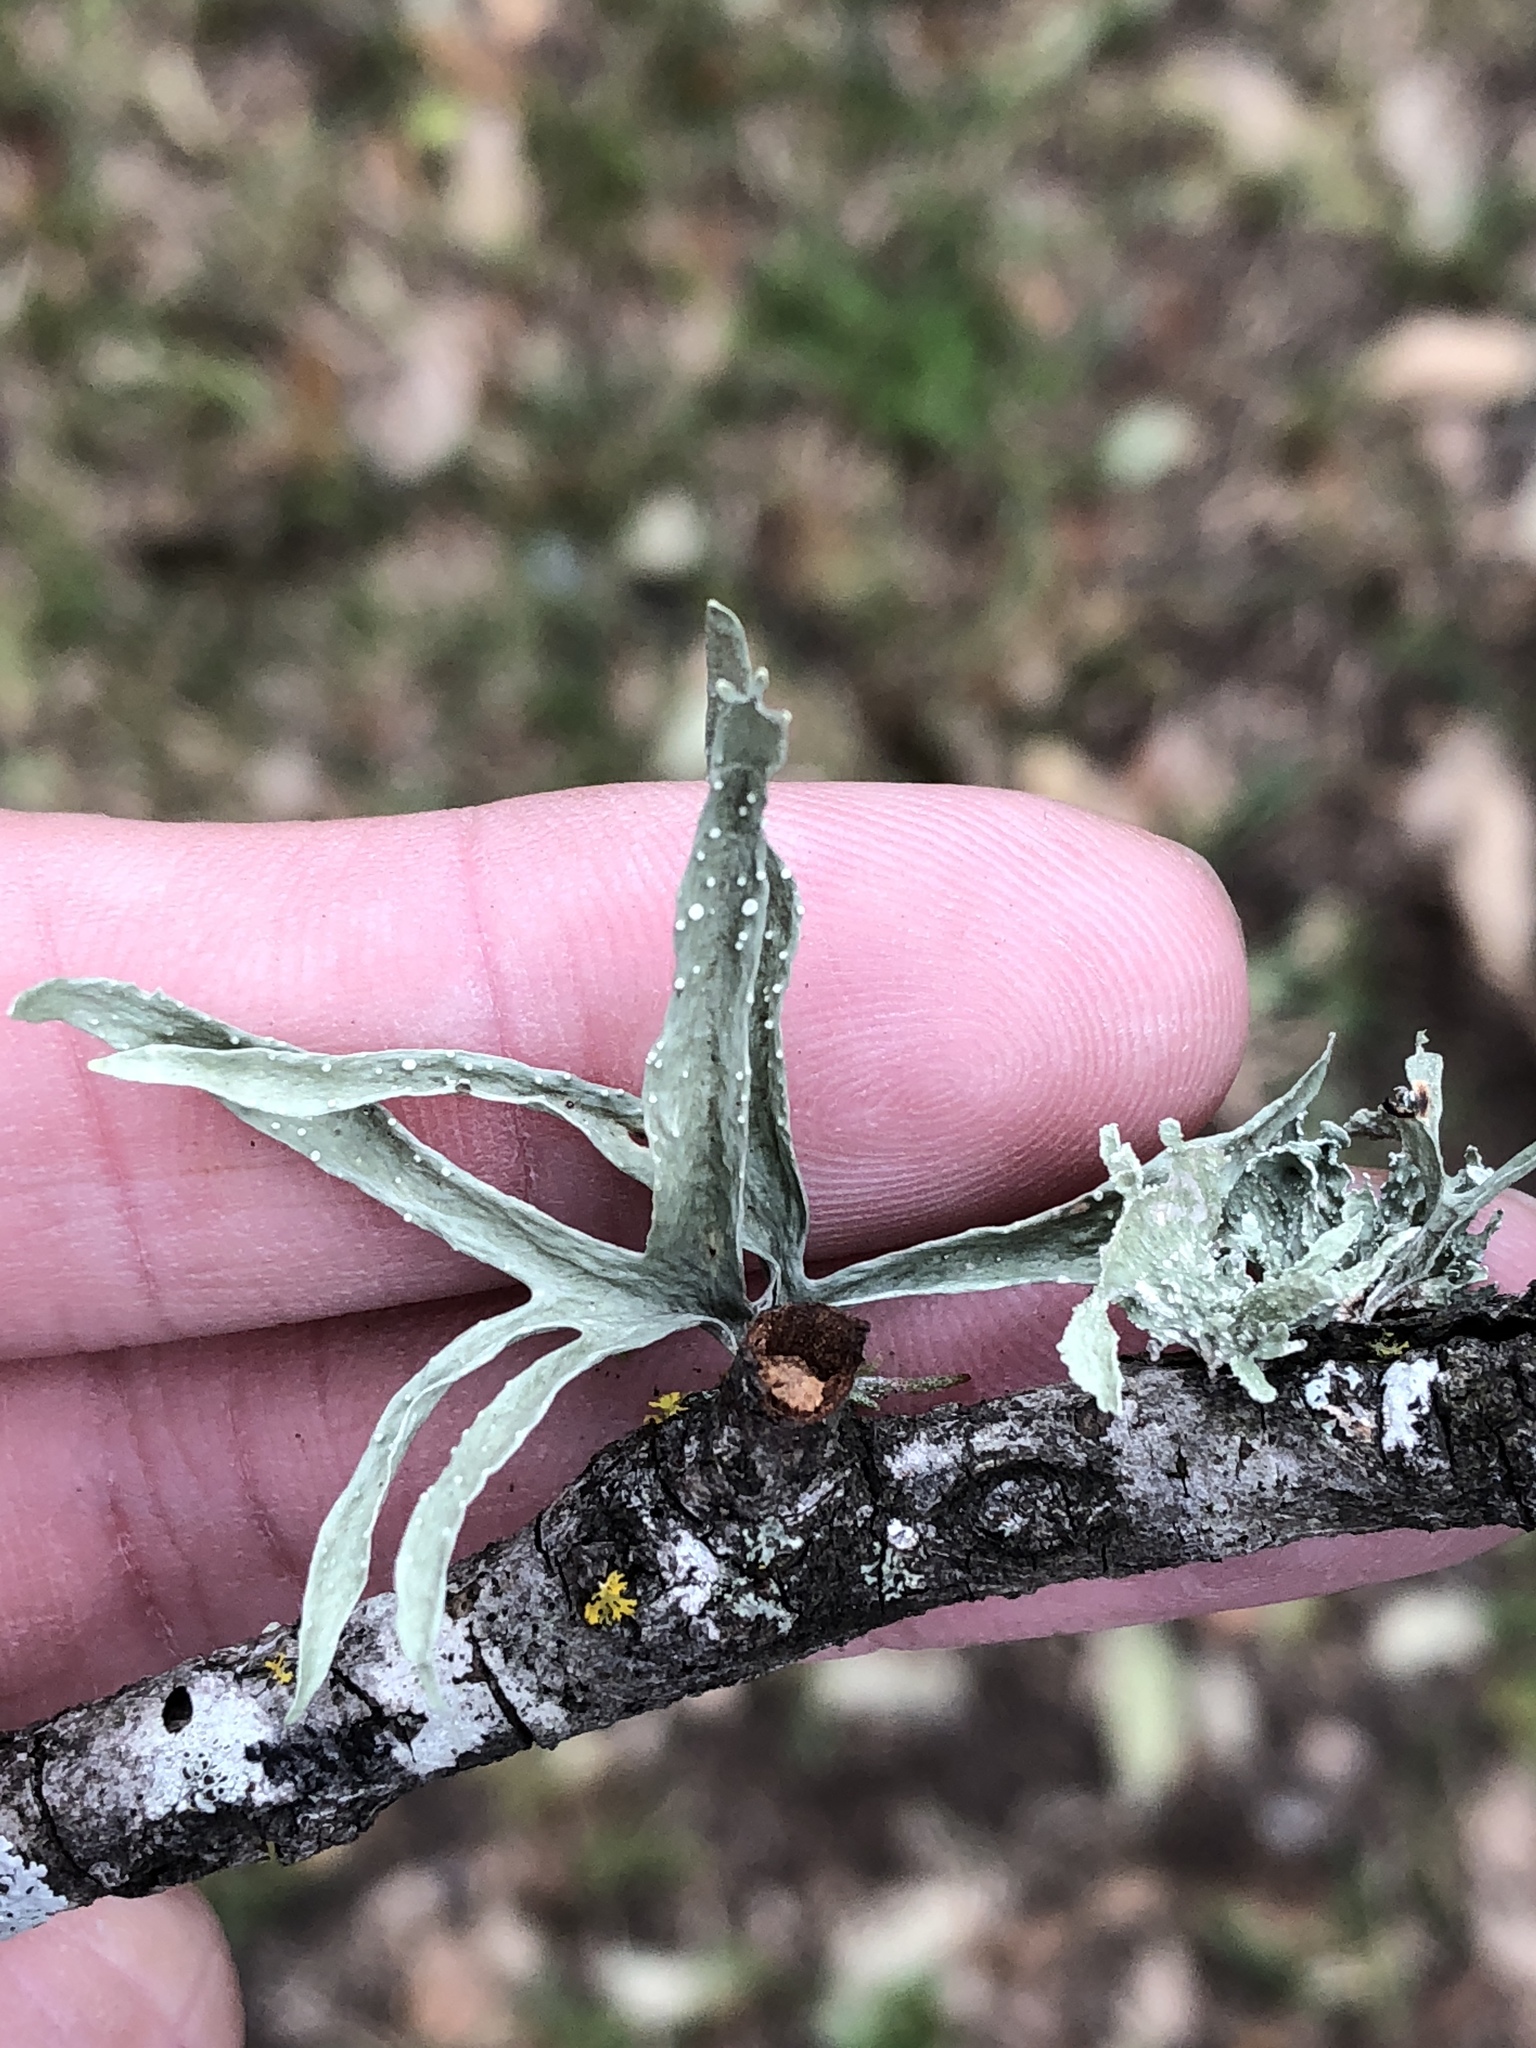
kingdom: Fungi
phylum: Ascomycota
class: Lecanoromycetes
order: Lecanorales
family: Ramalinaceae
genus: Ramalina
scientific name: Ramalina celastri
